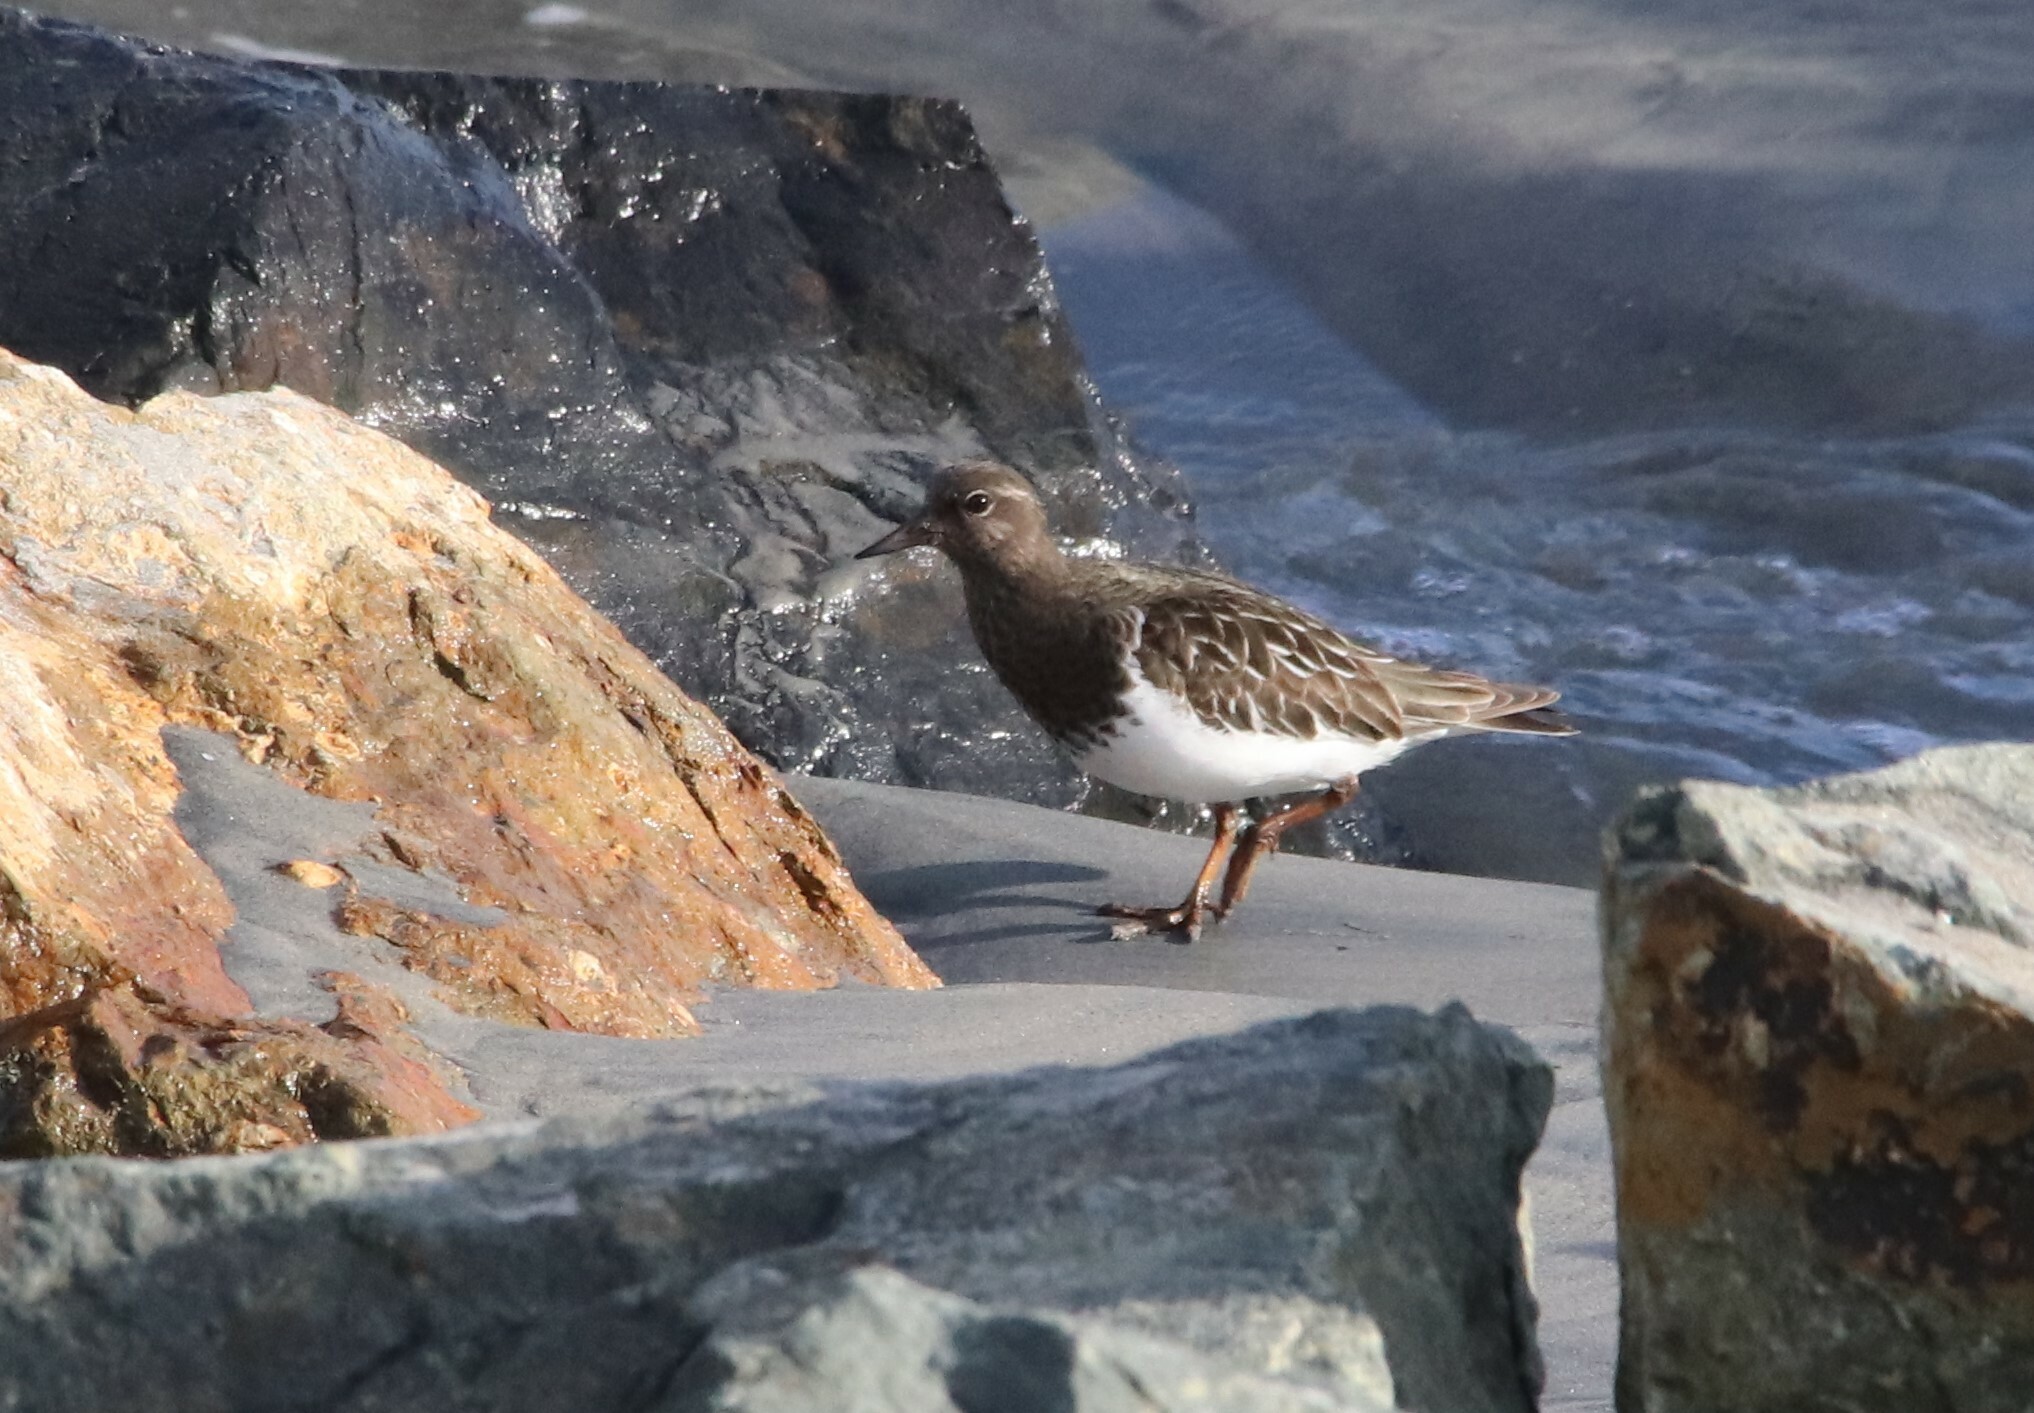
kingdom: Animalia
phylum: Chordata
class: Aves
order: Charadriiformes
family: Scolopacidae
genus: Arenaria
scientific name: Arenaria melanocephala
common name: Black turnstone
